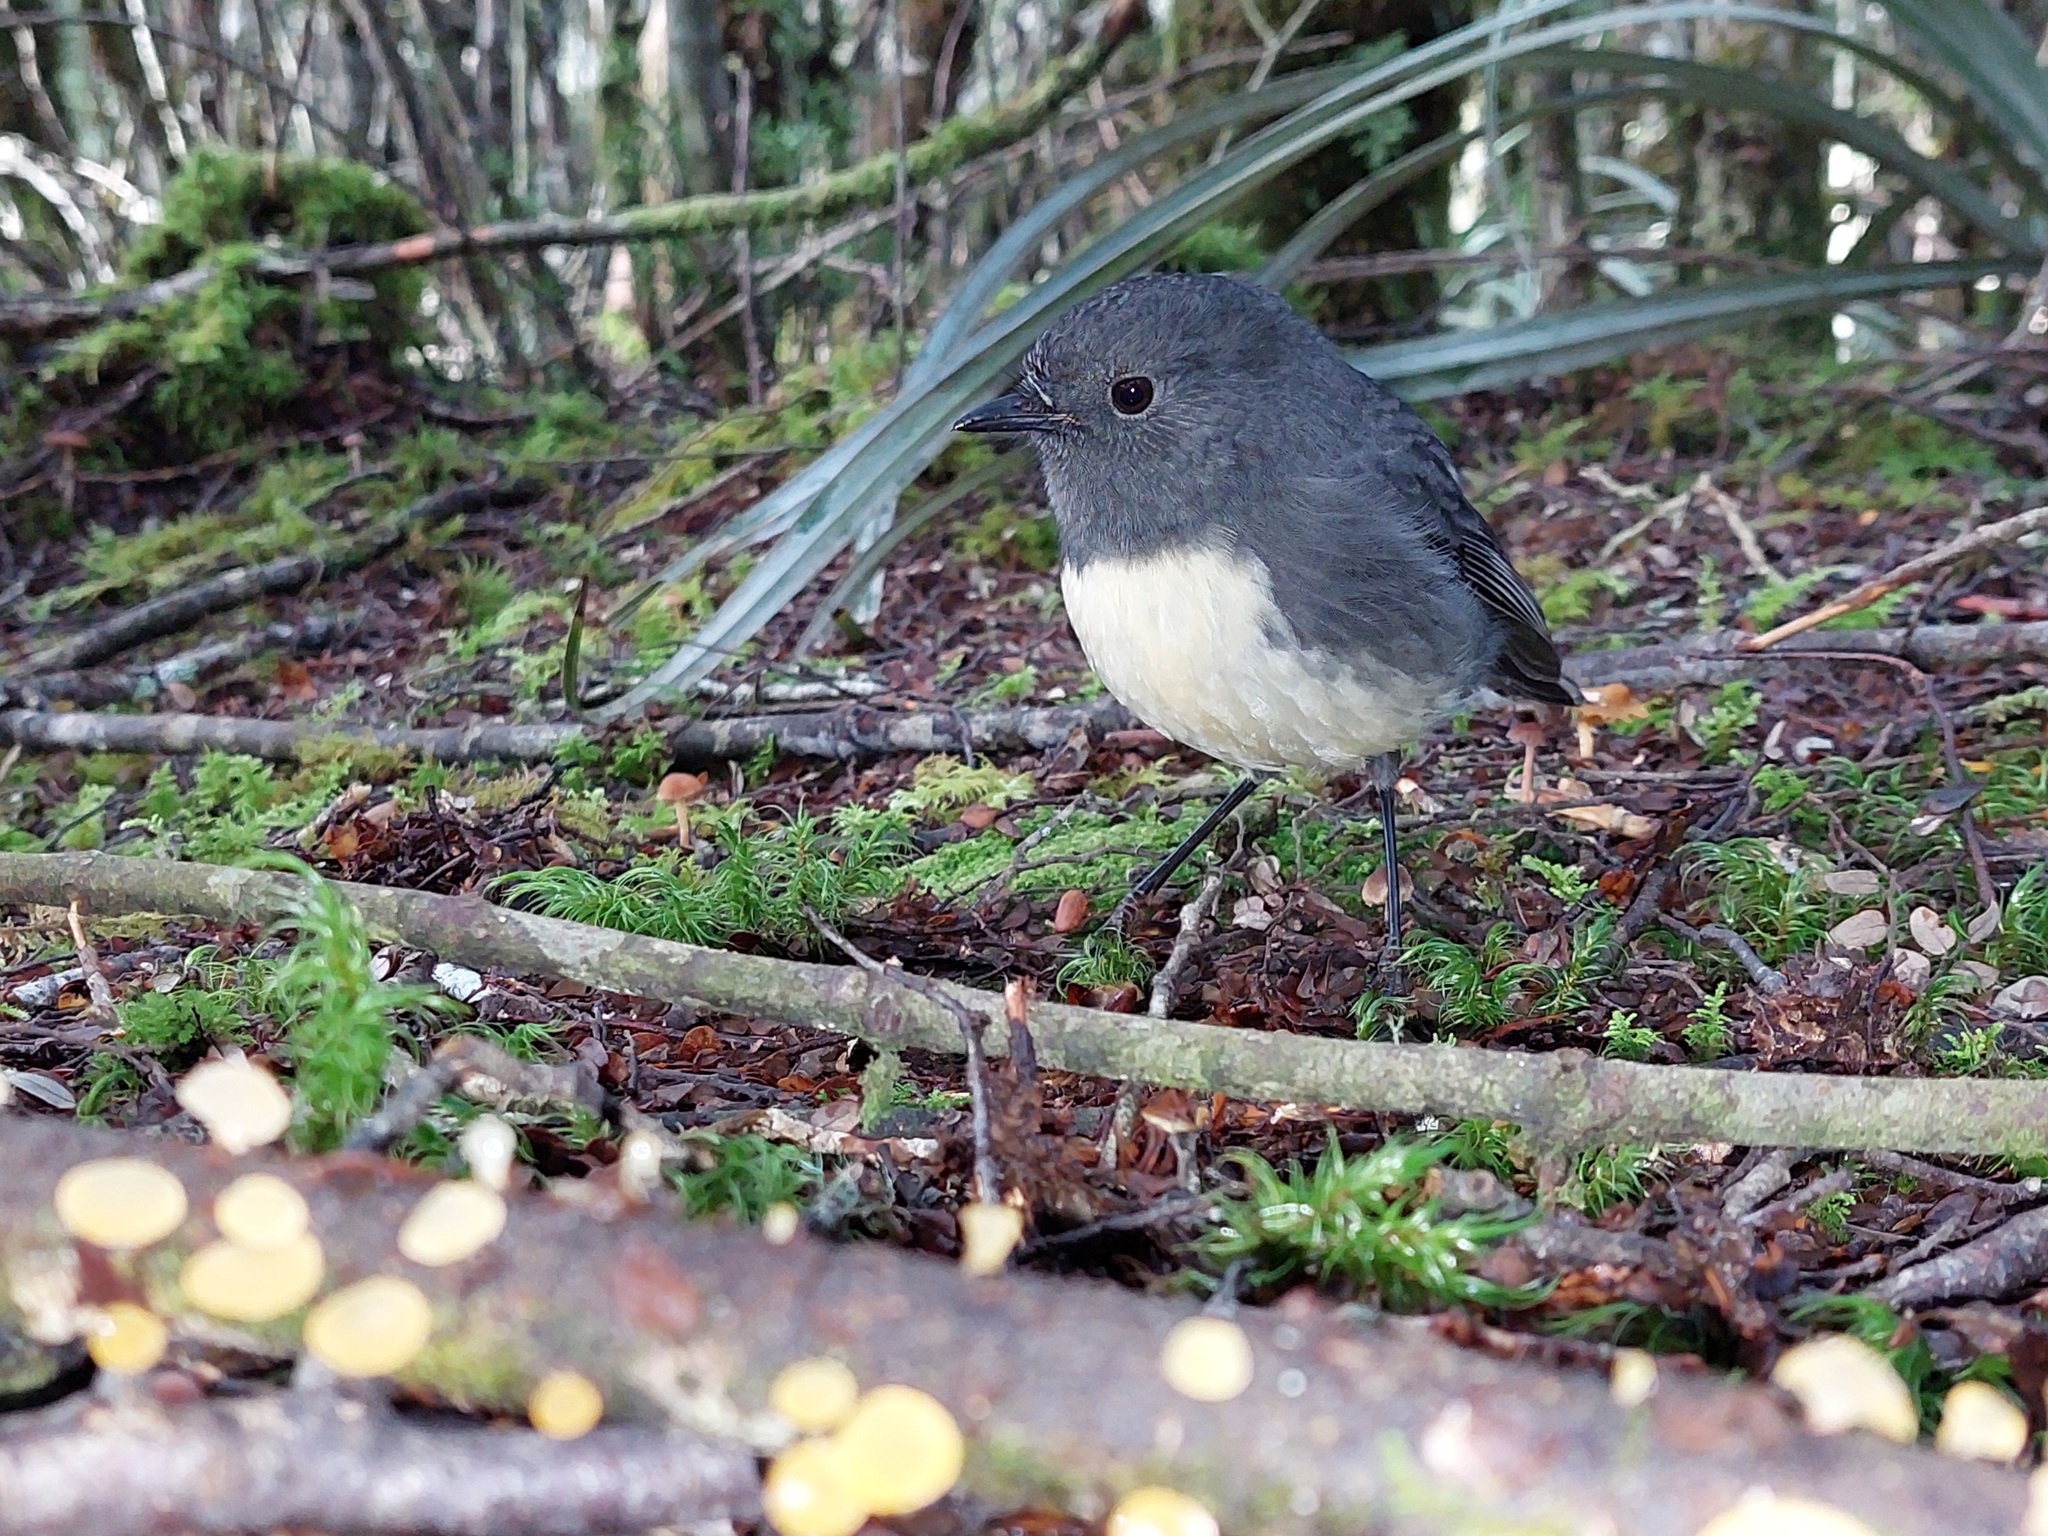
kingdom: Animalia
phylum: Chordata
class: Aves
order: Passeriformes
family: Petroicidae
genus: Petroica
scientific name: Petroica australis
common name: New zealand robin
